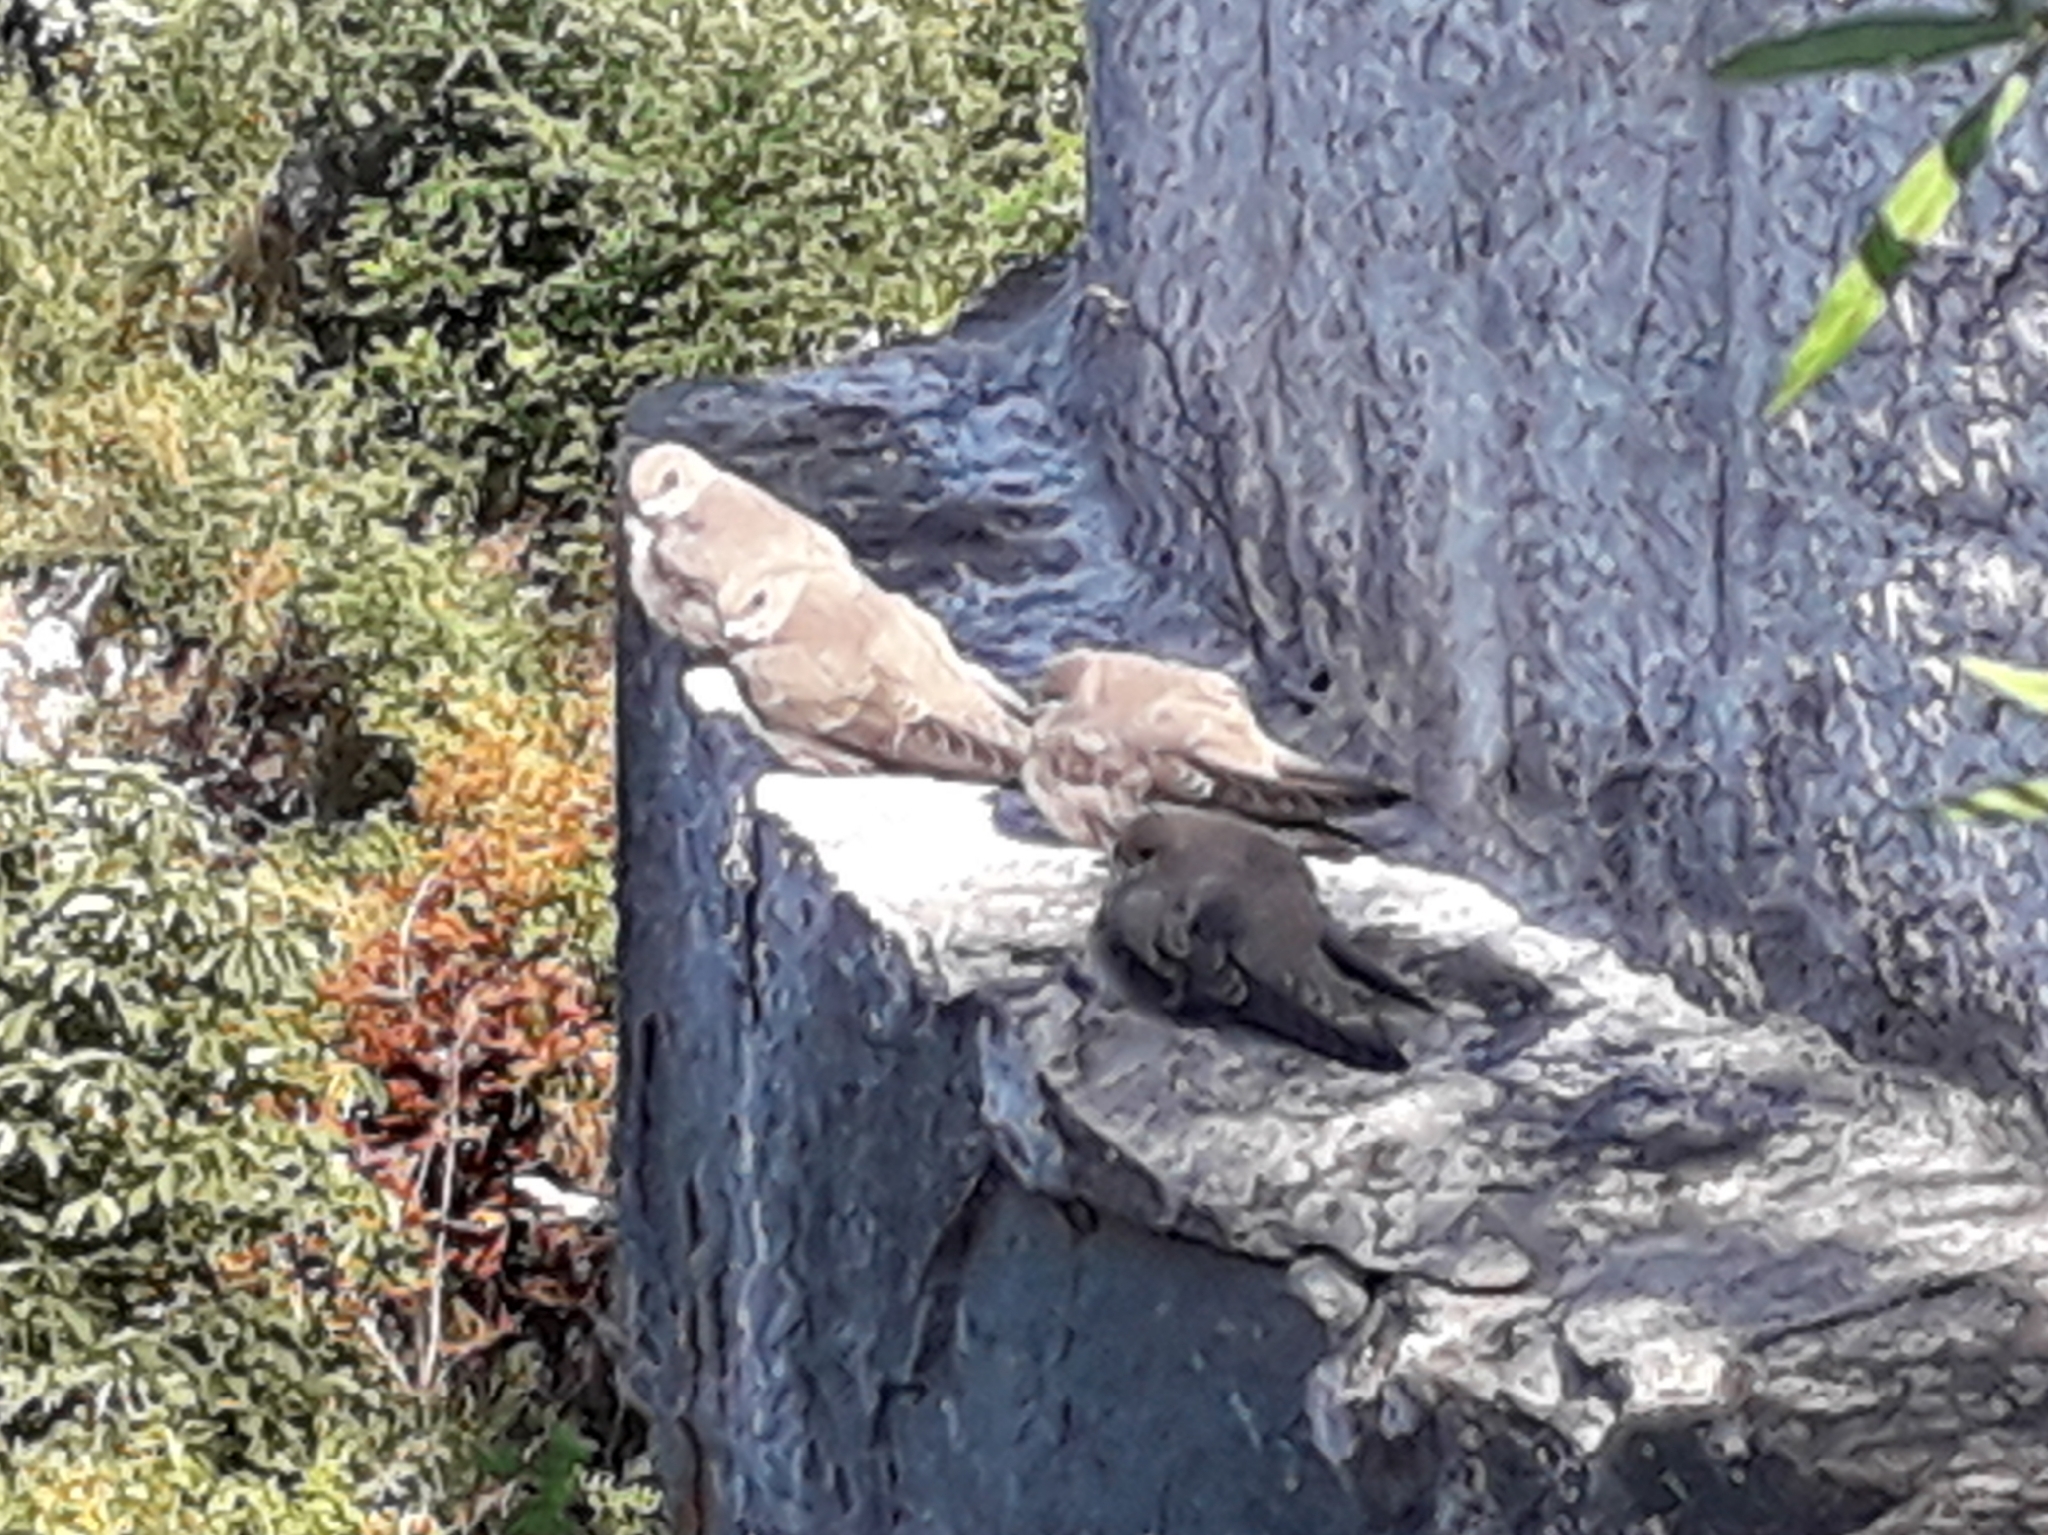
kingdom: Animalia
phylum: Chordata
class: Aves
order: Passeriformes
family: Hirundinidae
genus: Ptyonoprogne
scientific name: Ptyonoprogne rupestris
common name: Eurasian crag martin
